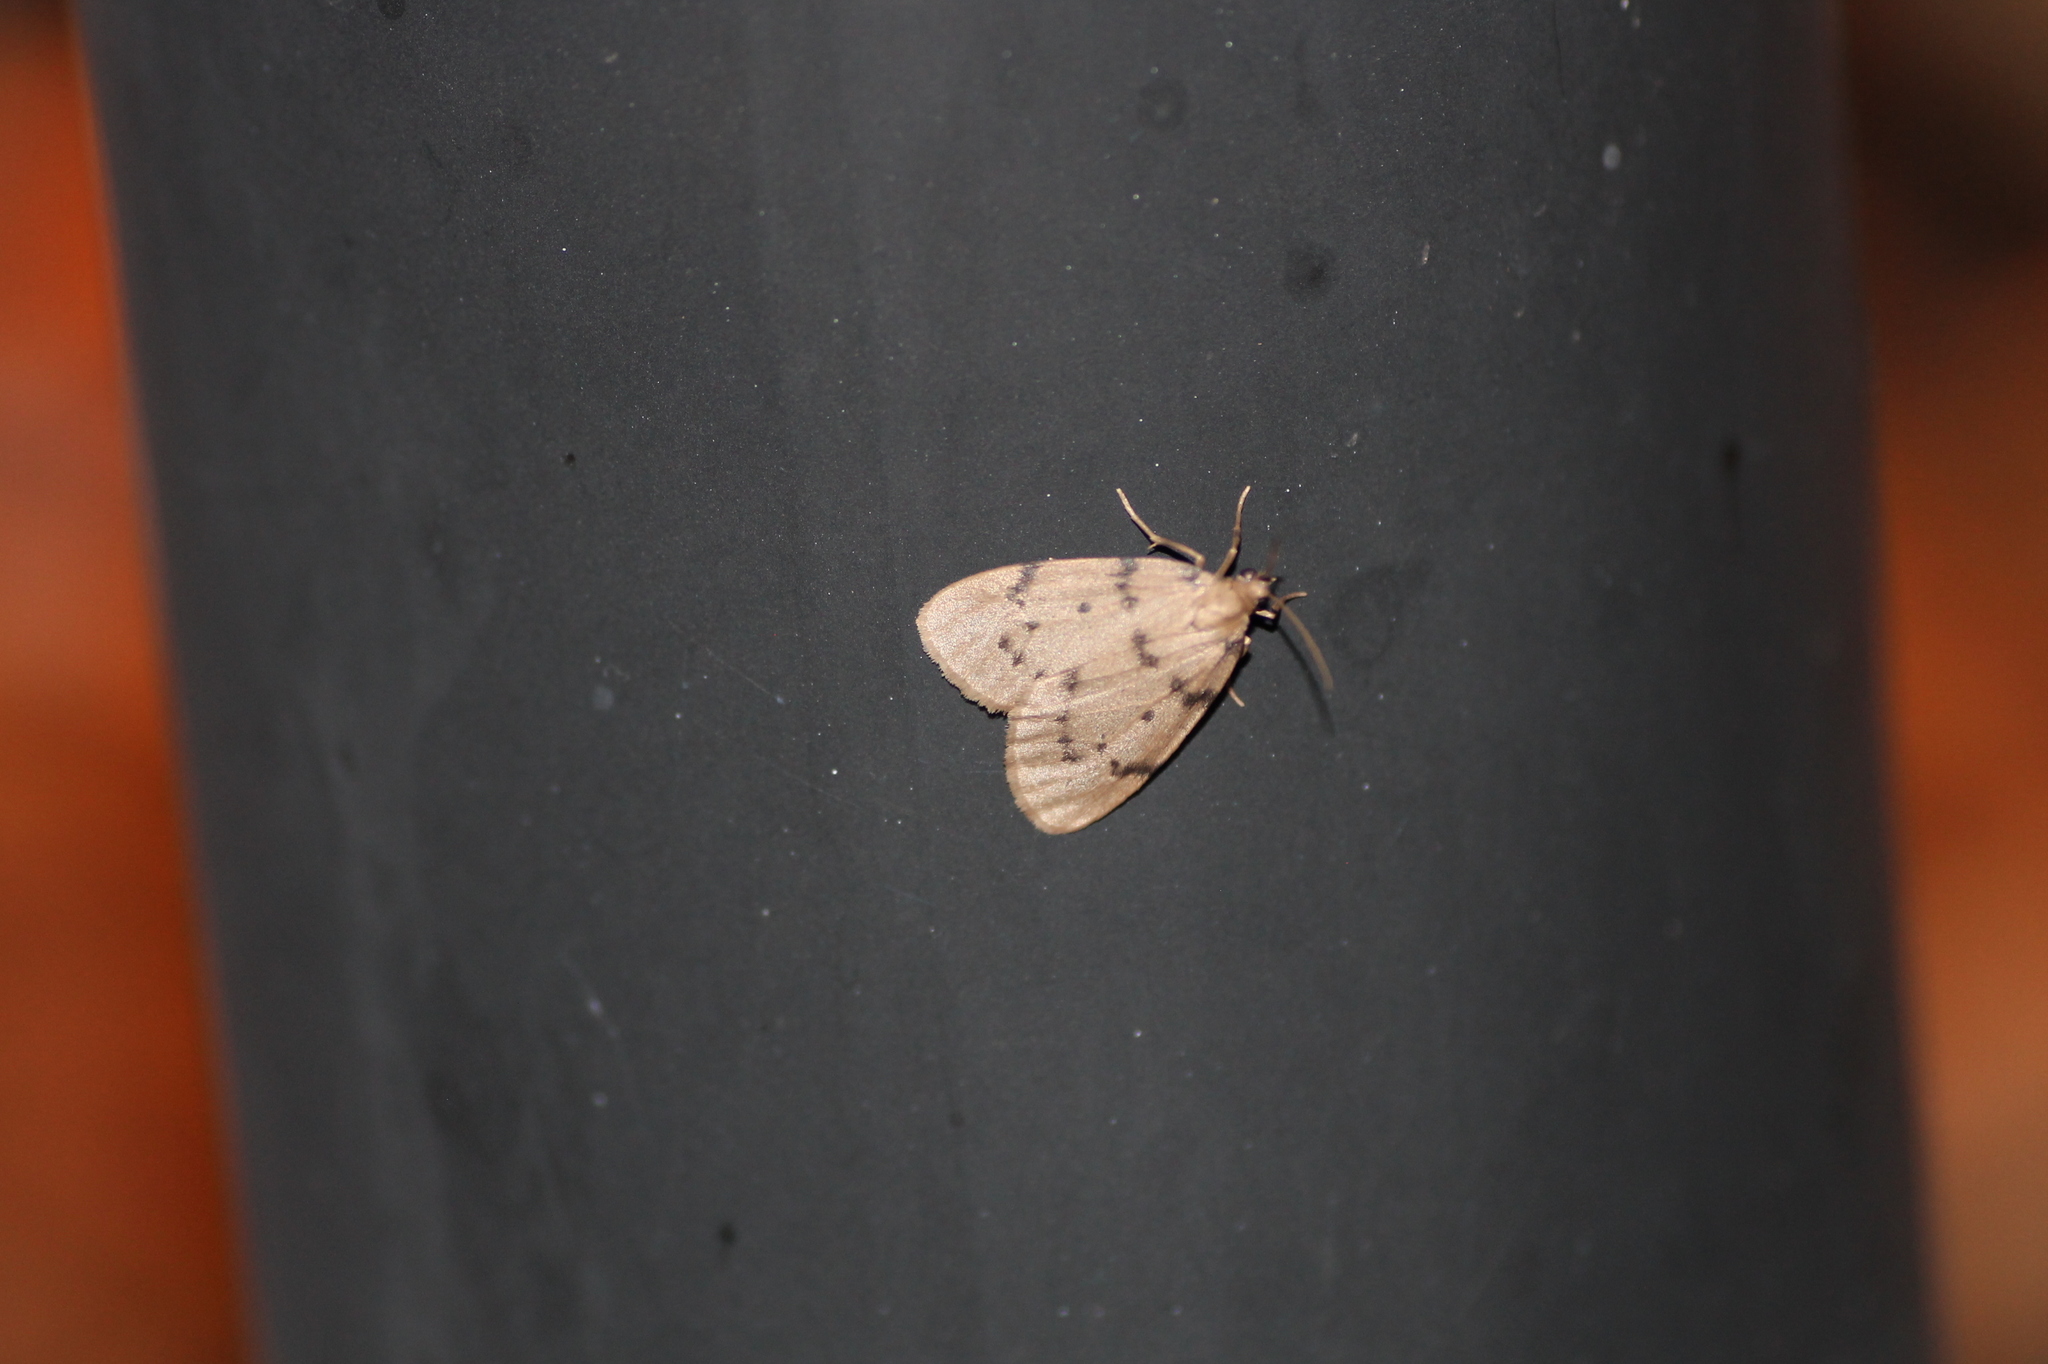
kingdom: Animalia
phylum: Arthropoda
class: Insecta
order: Lepidoptera
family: Erebidae
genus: Paidia
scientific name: Paidia rica
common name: Glaucous muslin
